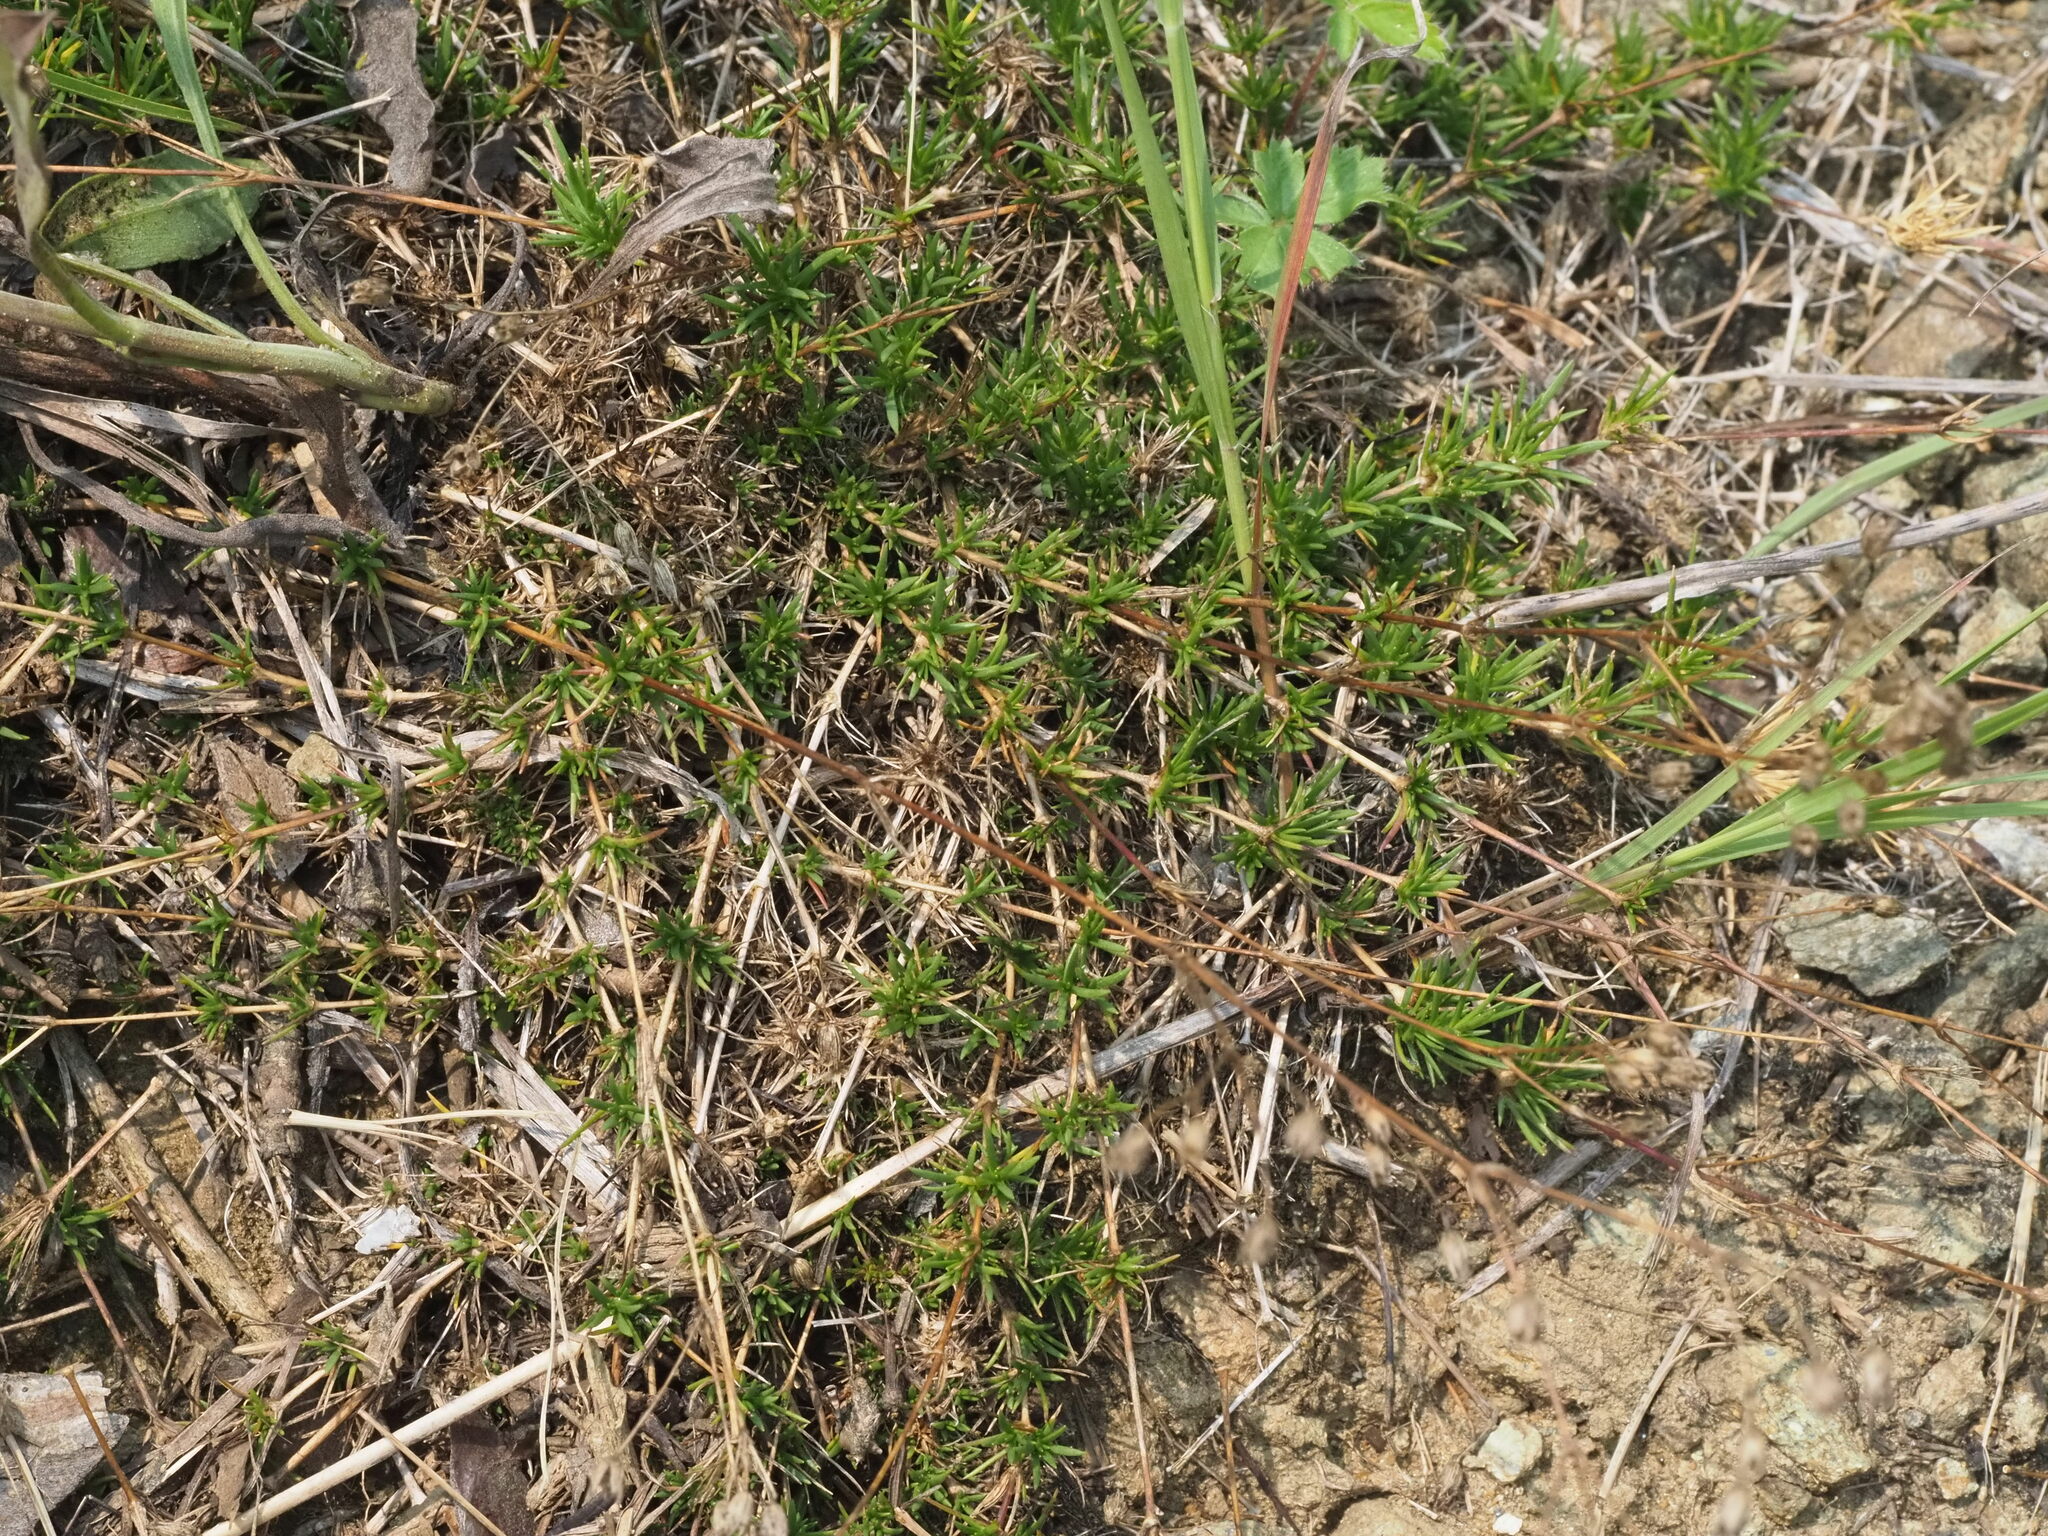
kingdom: Plantae
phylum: Tracheophyta
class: Magnoliopsida
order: Caryophyllales
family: Caryophyllaceae
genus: Sabulina
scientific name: Sabulina michauxii
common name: Michaux's stitchwort
